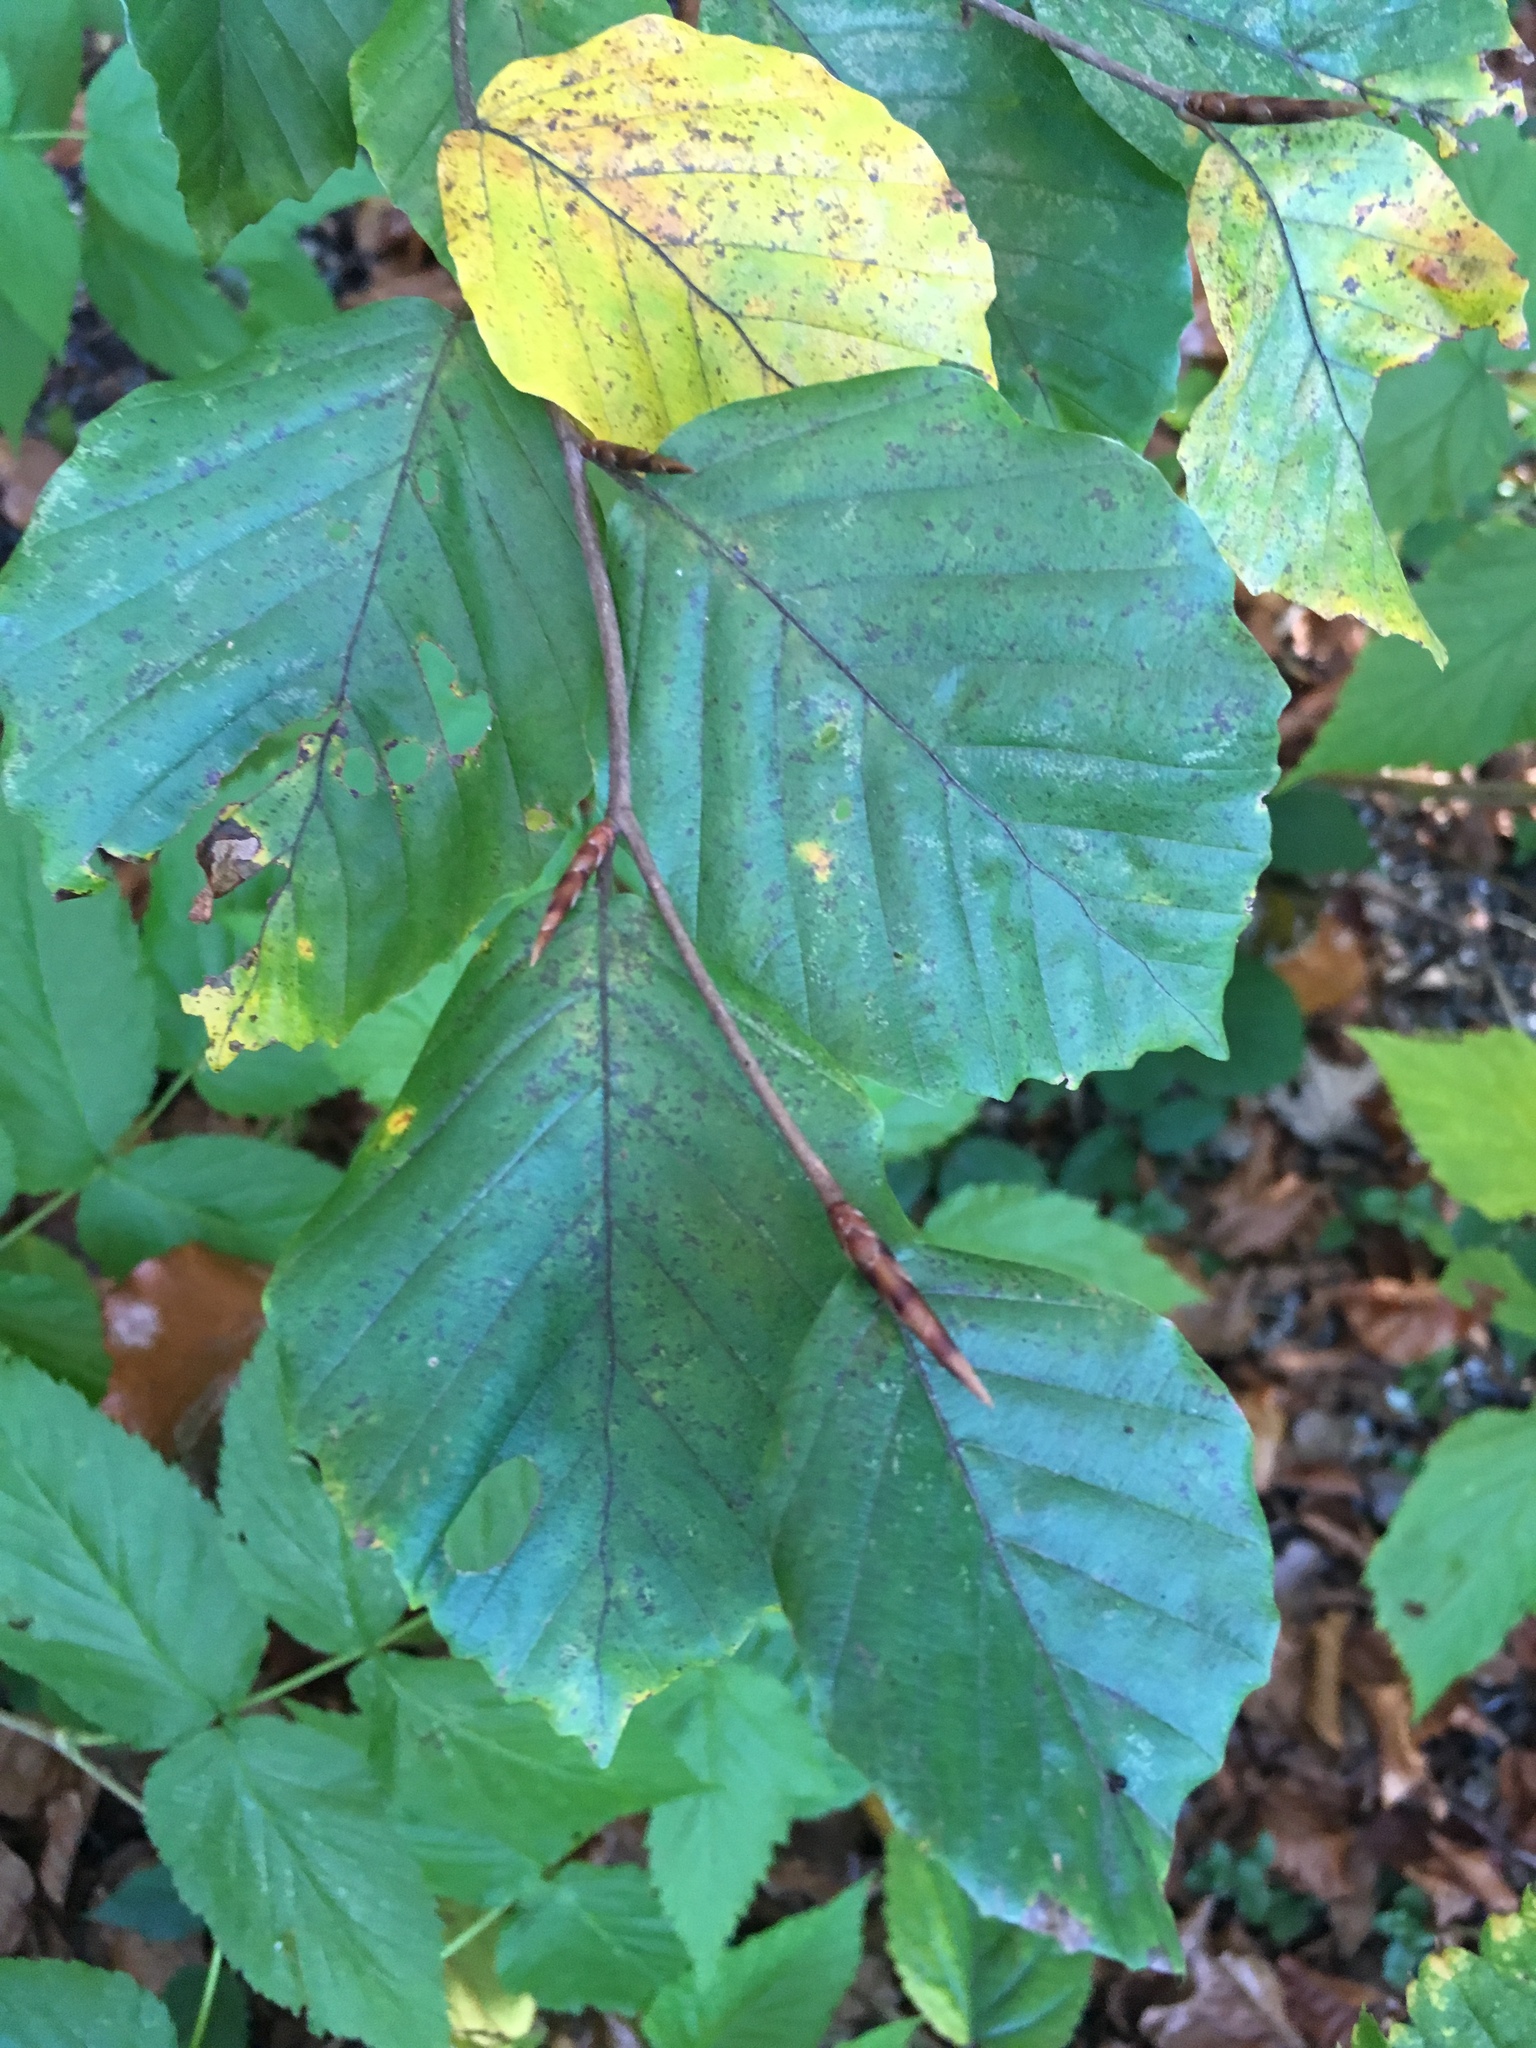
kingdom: Plantae
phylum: Tracheophyta
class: Magnoliopsida
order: Fagales
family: Fagaceae
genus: Fagus
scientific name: Fagus sylvatica
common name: Beech
